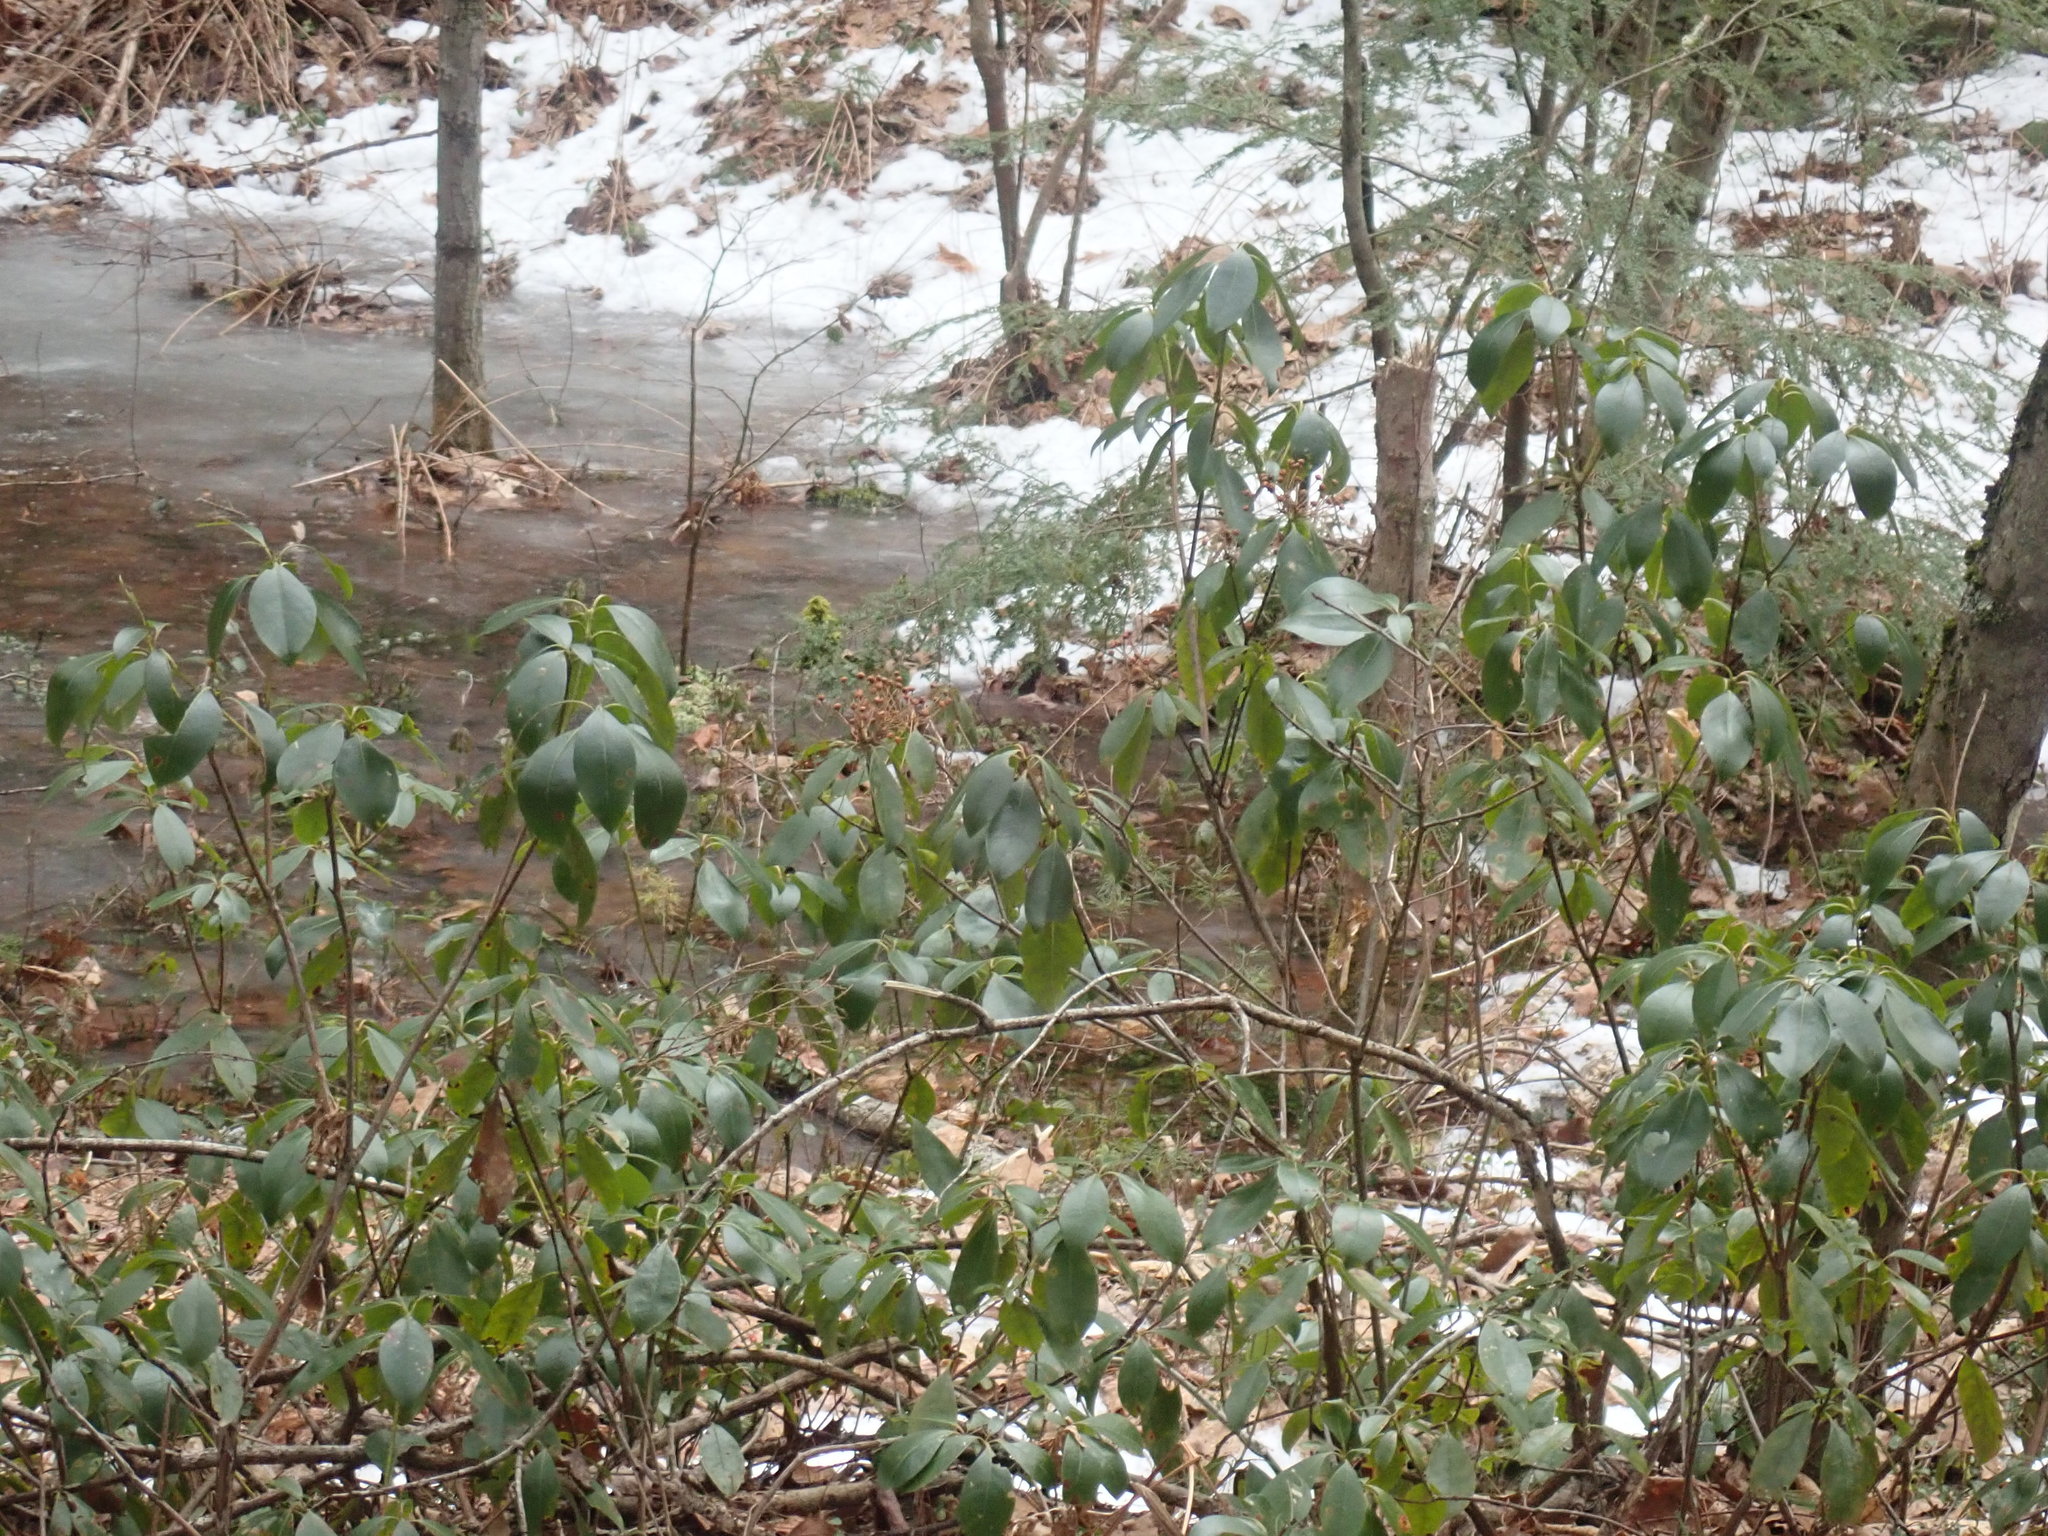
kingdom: Plantae
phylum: Tracheophyta
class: Magnoliopsida
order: Ericales
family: Ericaceae
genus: Kalmia
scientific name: Kalmia latifolia
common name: Mountain-laurel
